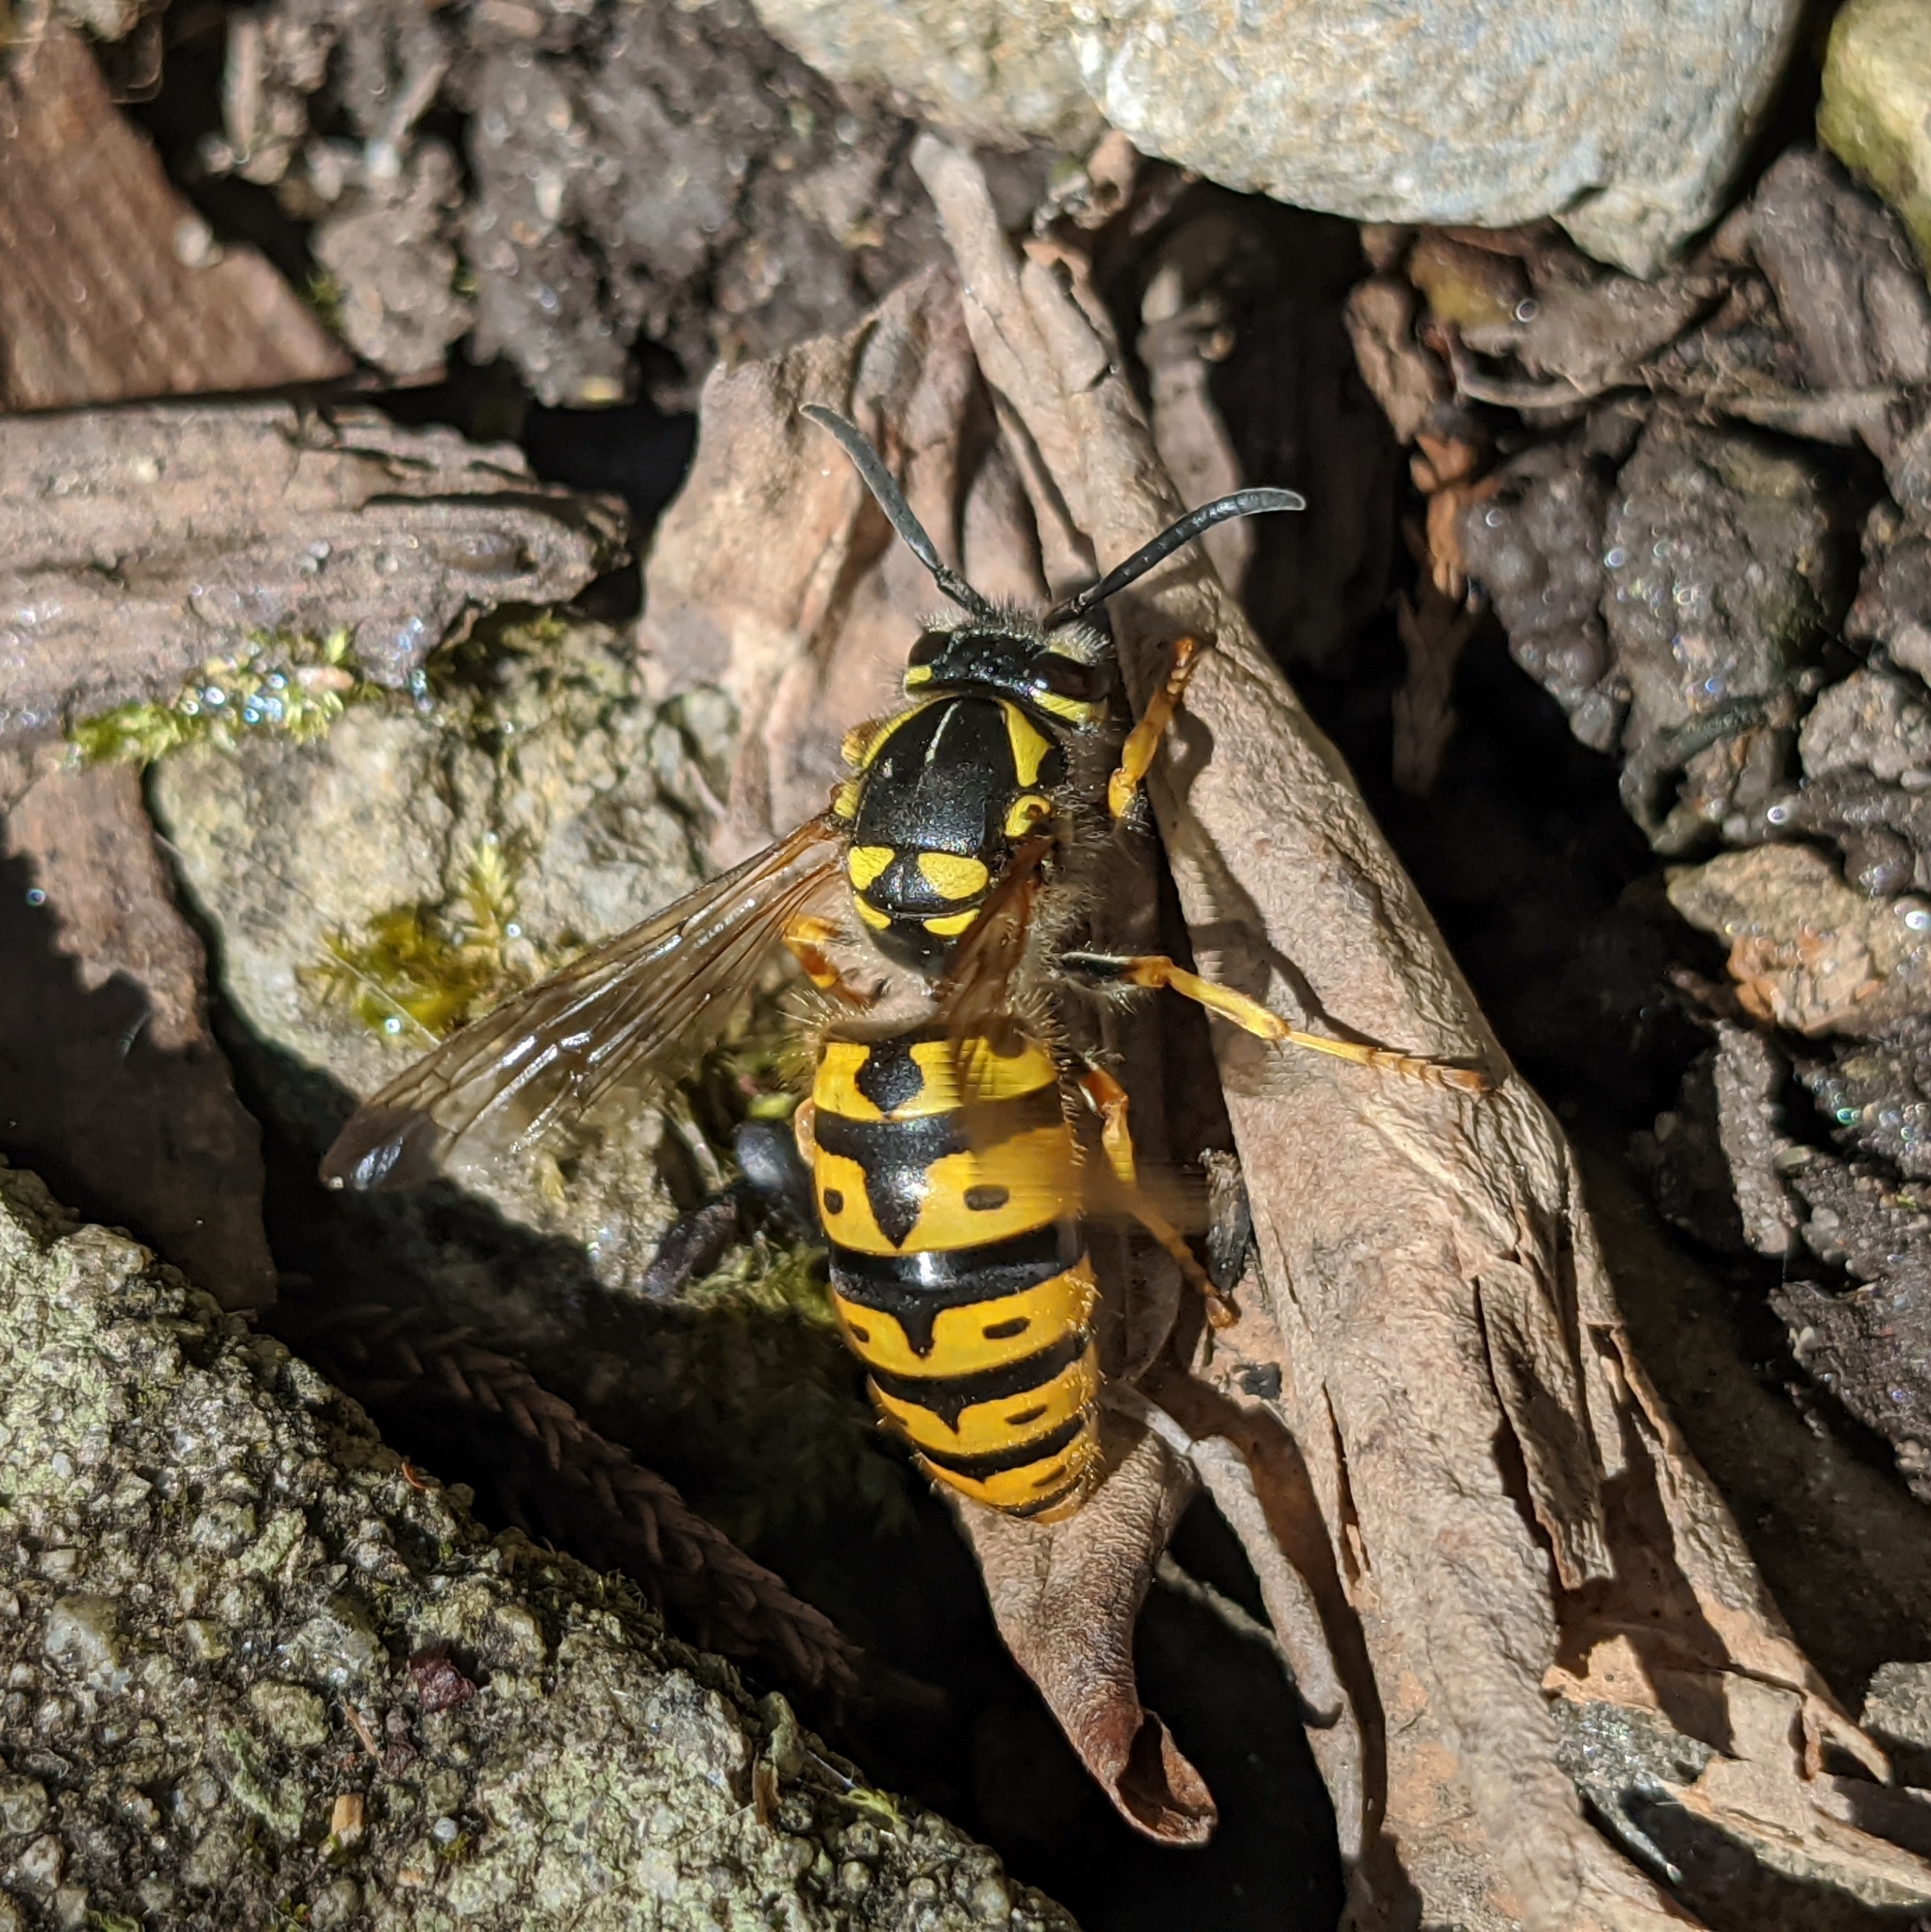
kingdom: Animalia
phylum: Arthropoda
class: Insecta
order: Hymenoptera
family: Vespidae
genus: Vespula
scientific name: Vespula germanica
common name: German wasp
